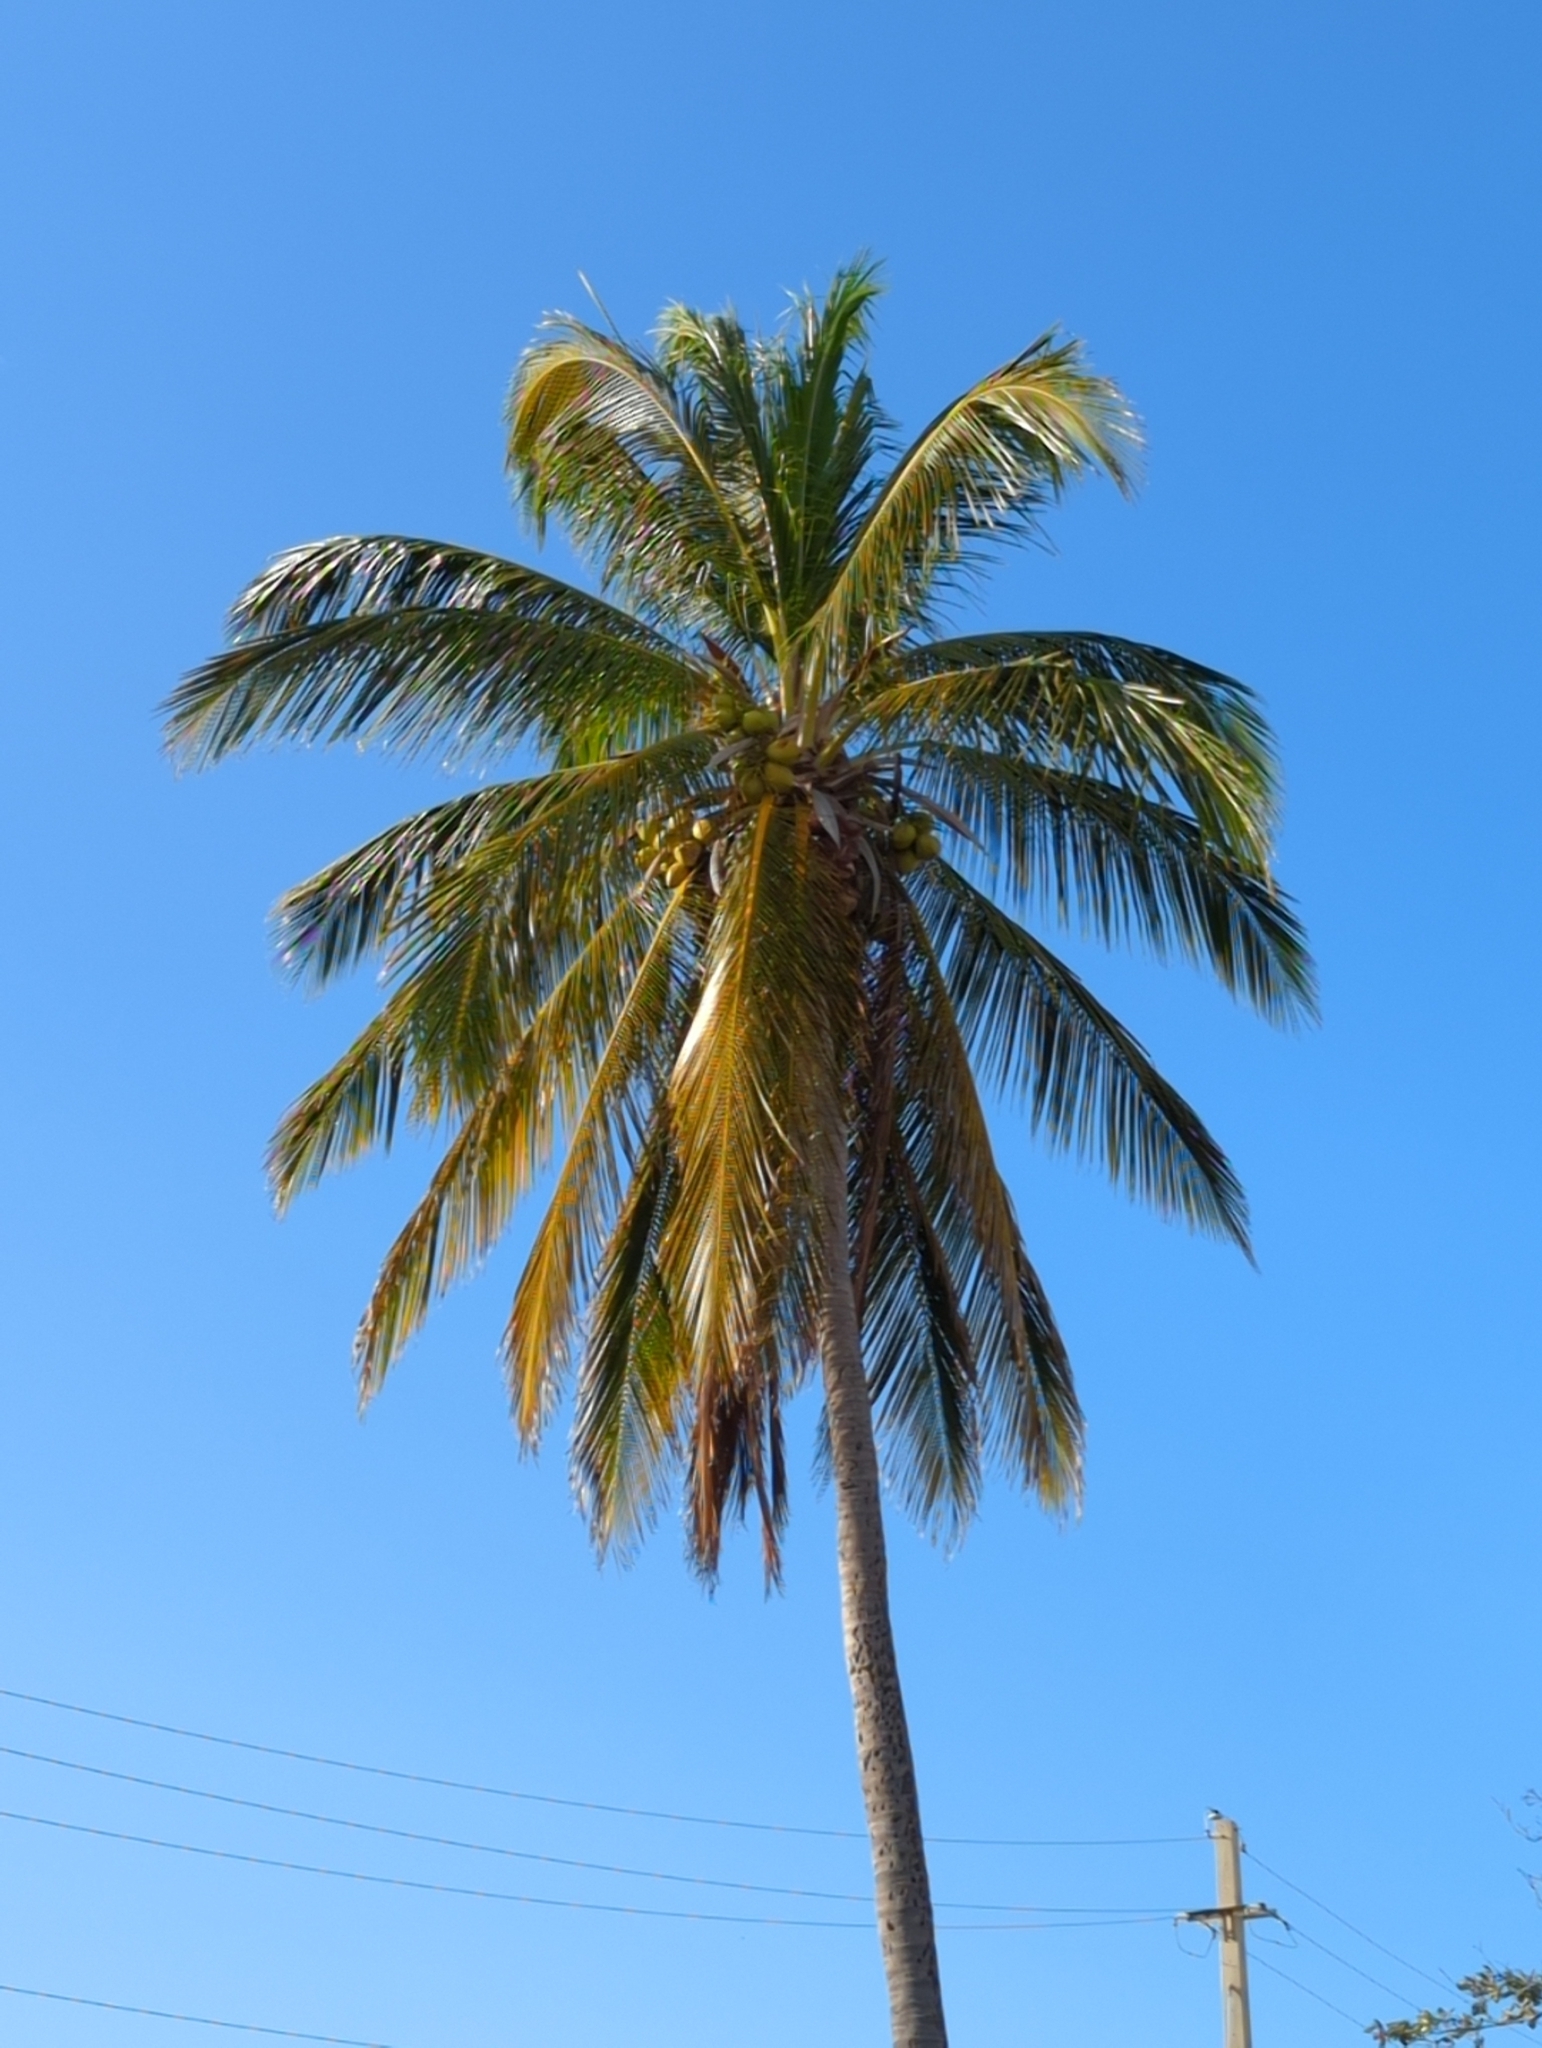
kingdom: Plantae
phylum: Tracheophyta
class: Liliopsida
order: Arecales
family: Arecaceae
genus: Cocos
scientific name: Cocos nucifera
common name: Coconut palm
